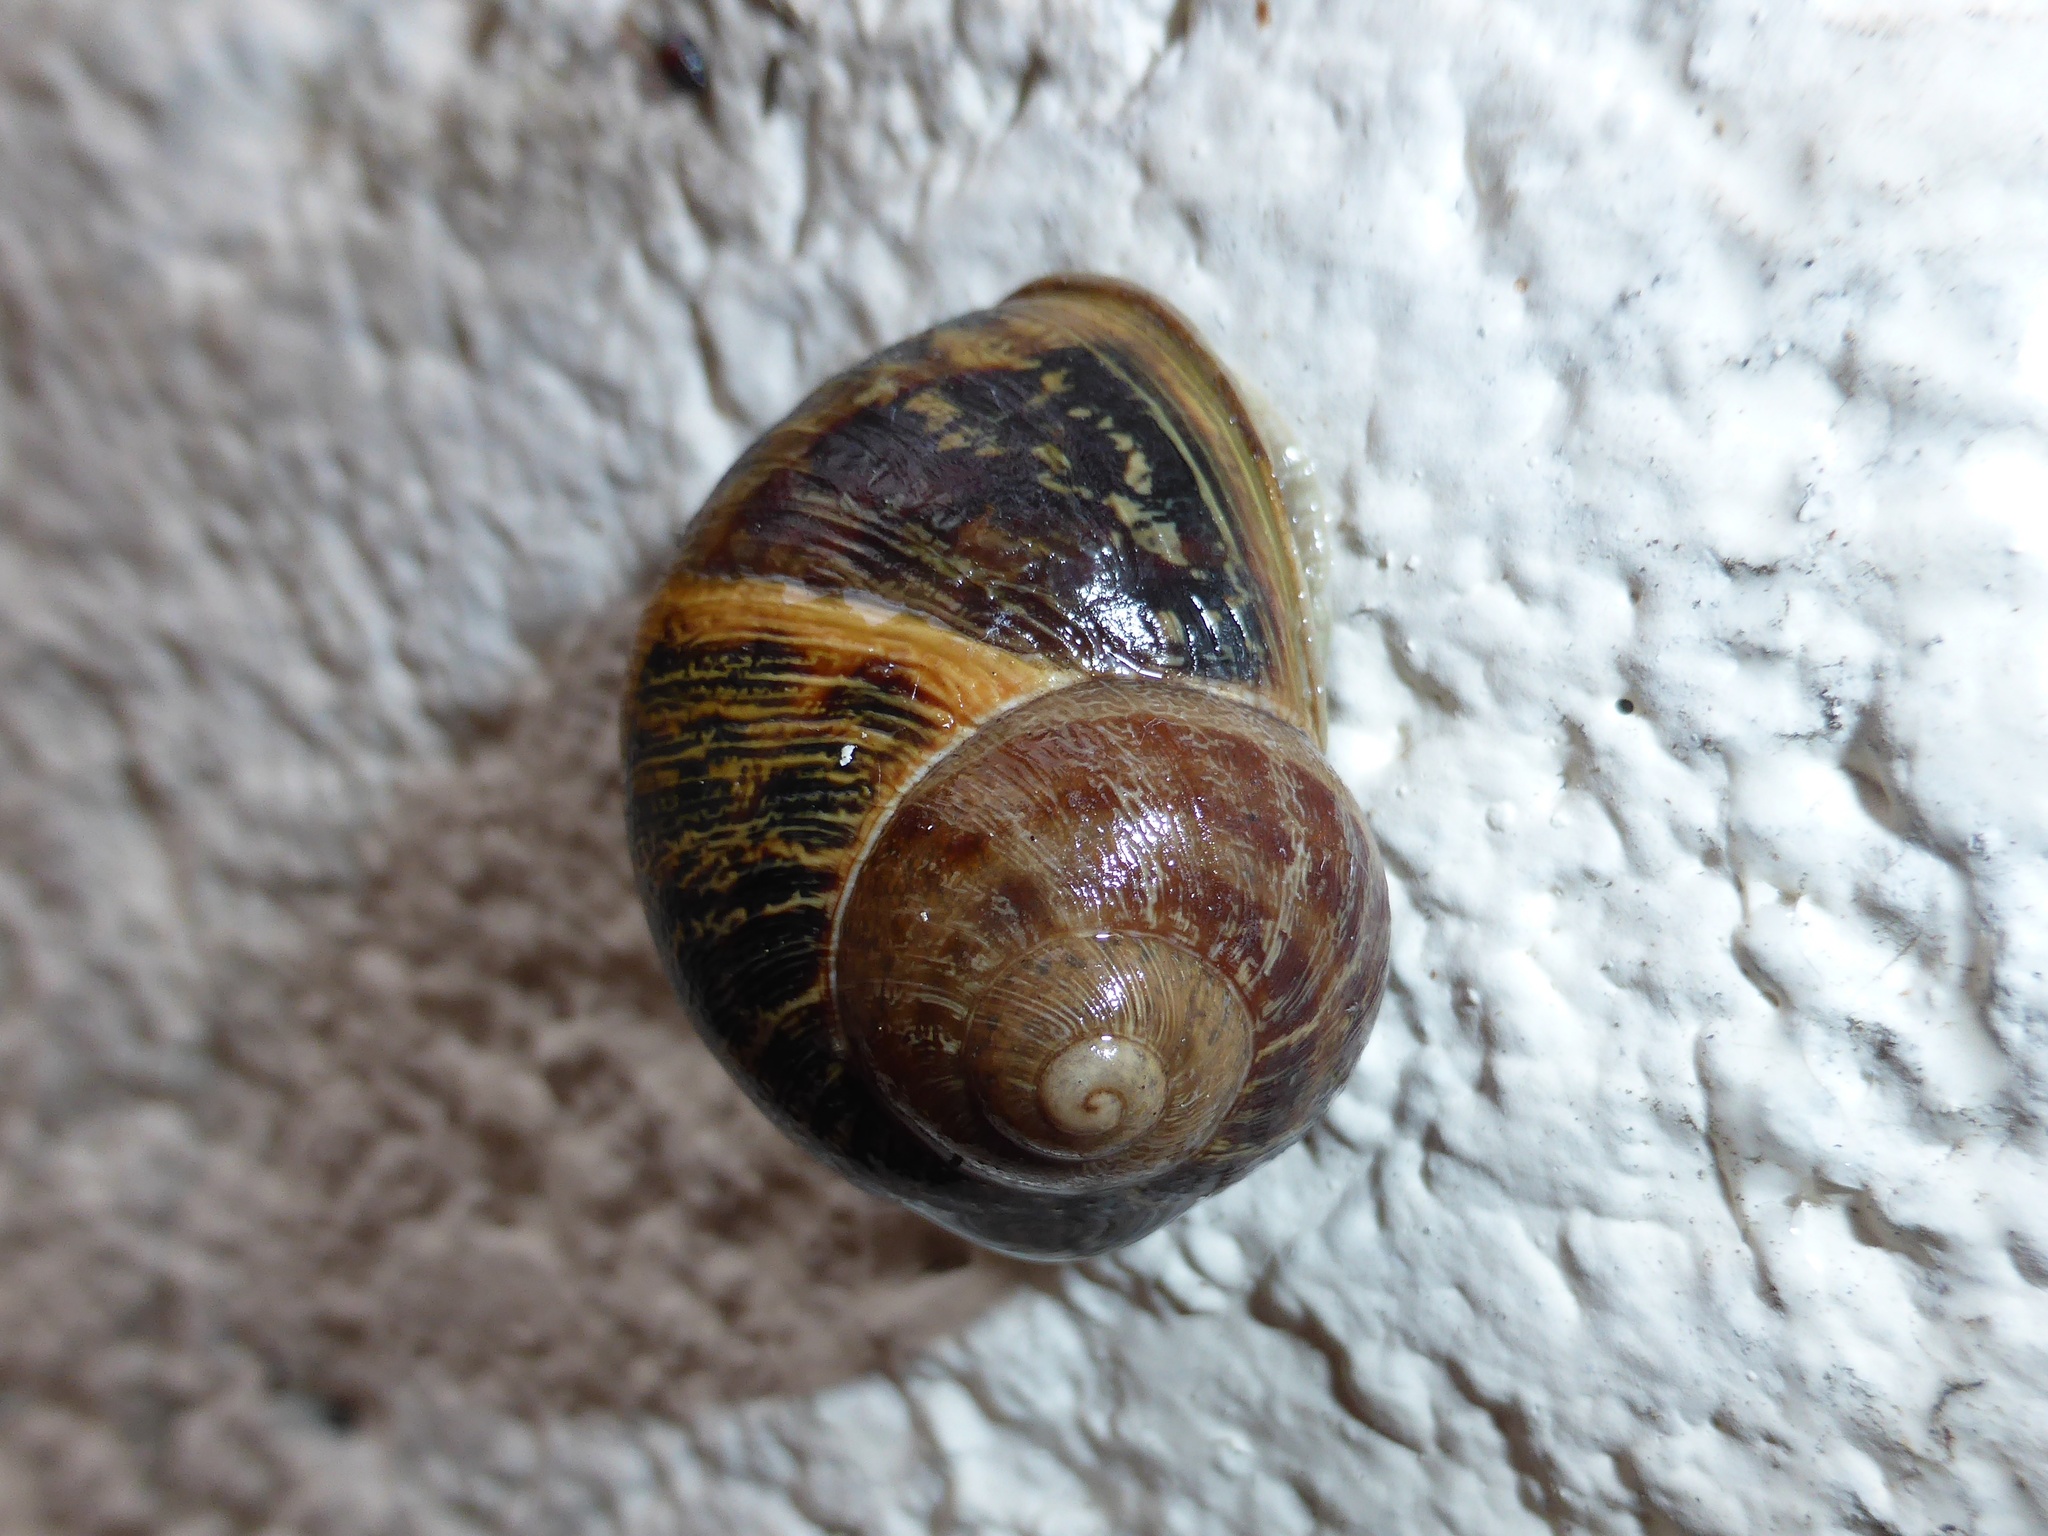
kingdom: Animalia
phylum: Mollusca
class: Gastropoda
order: Stylommatophora
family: Helicidae
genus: Cornu
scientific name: Cornu aspersum
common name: Brown garden snail
